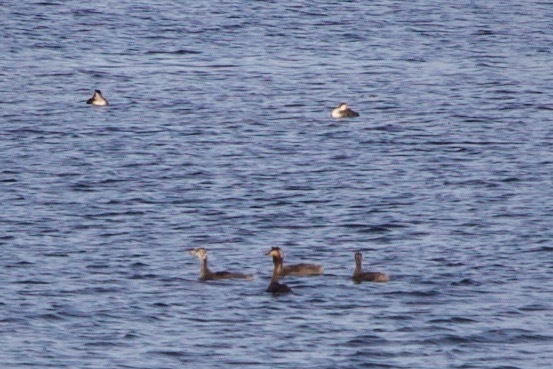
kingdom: Animalia
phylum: Chordata
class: Aves
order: Podicipediformes
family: Podicipedidae
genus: Podiceps
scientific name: Podiceps cristatus
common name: Great crested grebe
